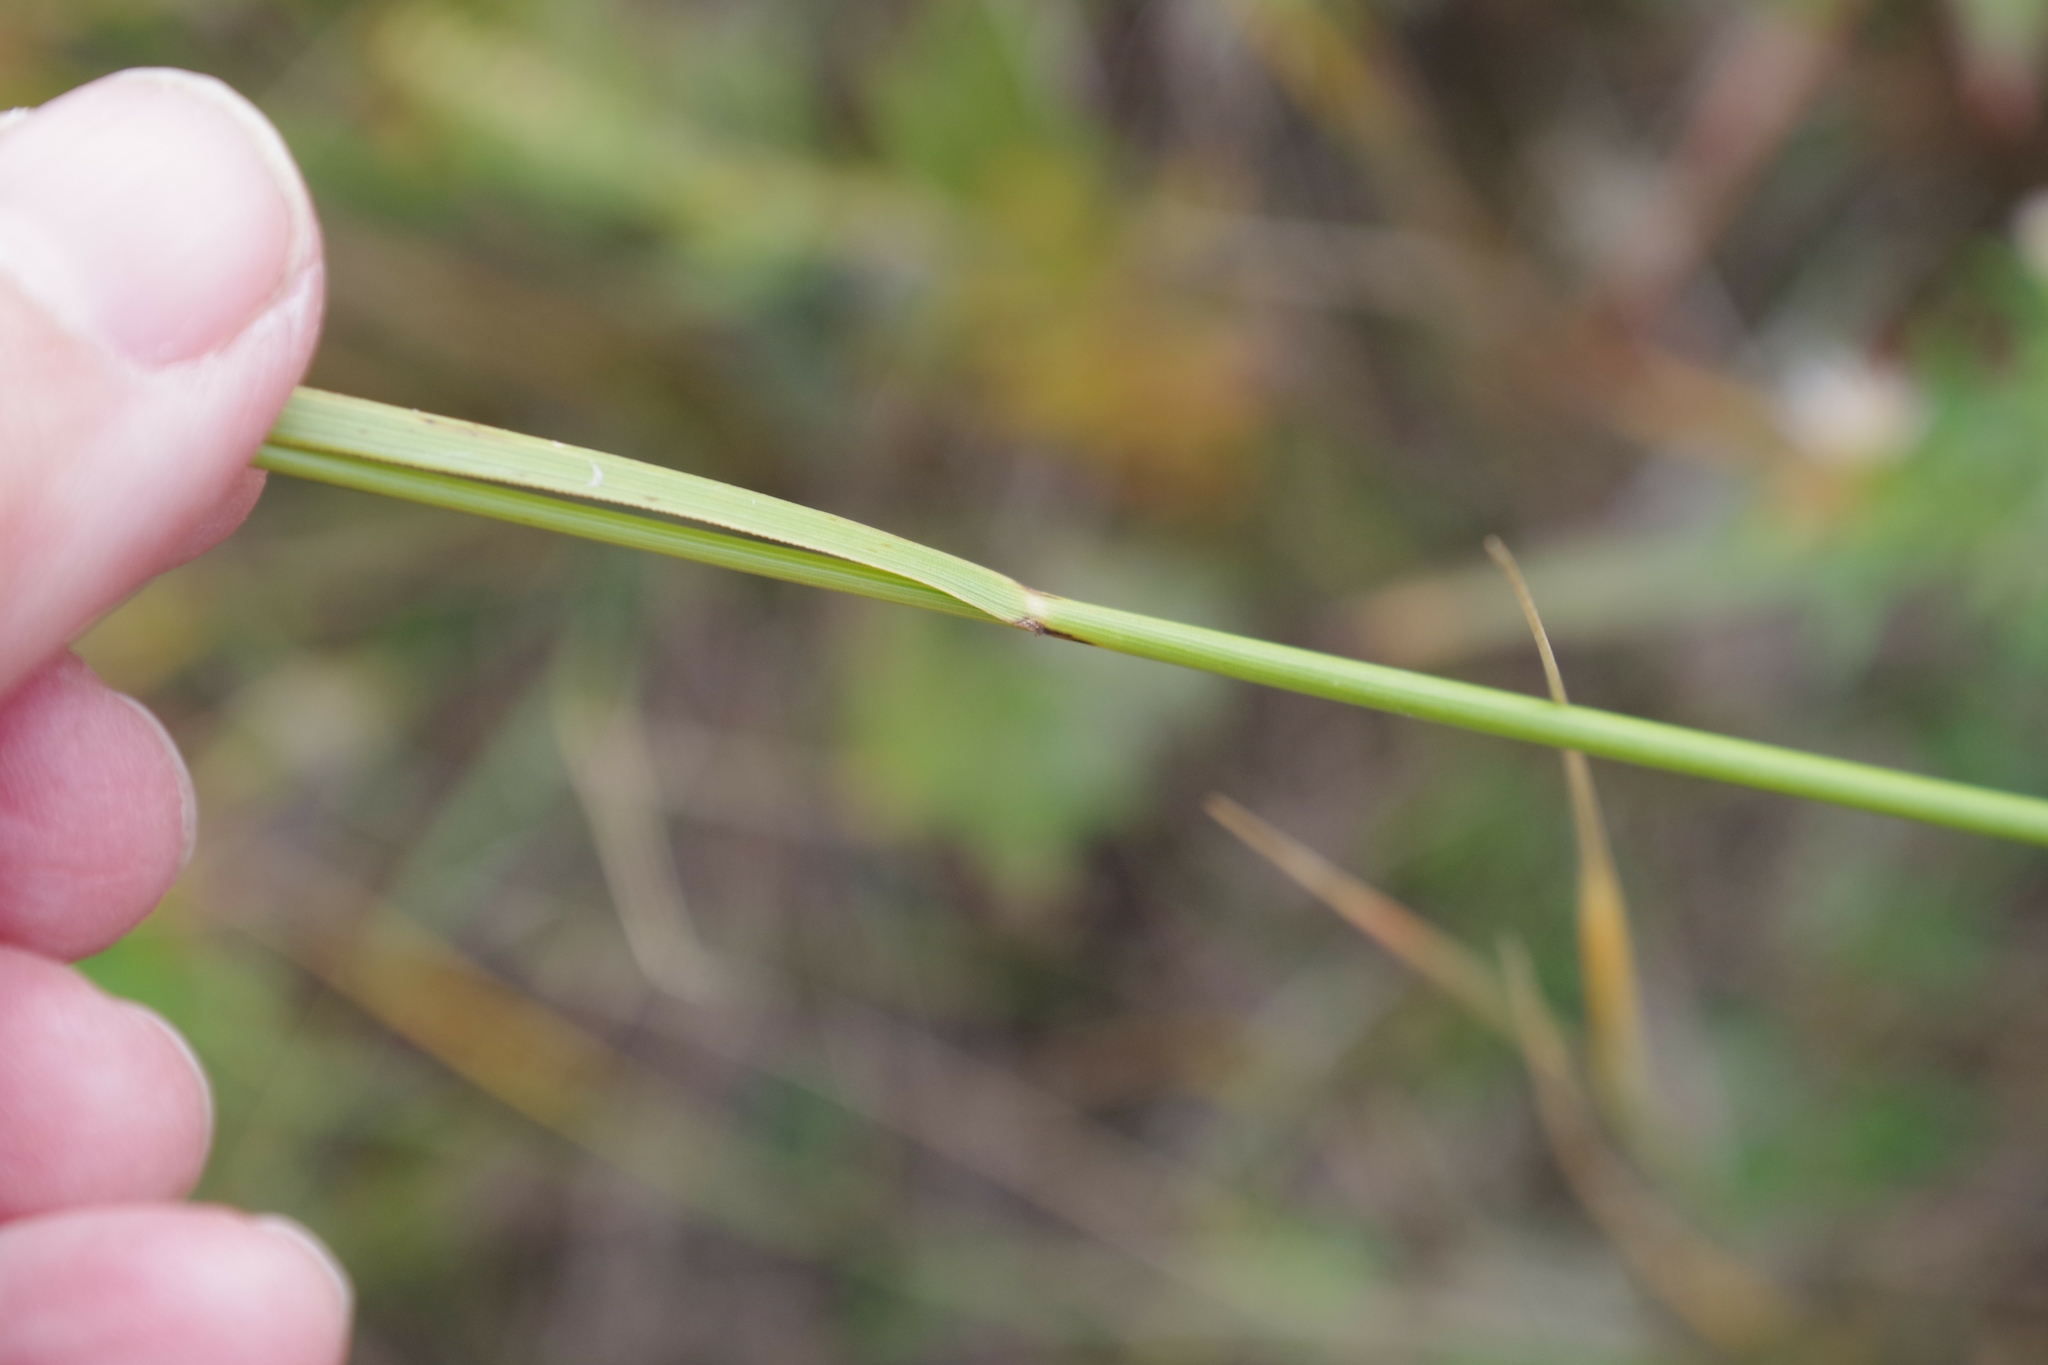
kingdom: Plantae
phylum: Tracheophyta
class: Liliopsida
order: Poales
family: Poaceae
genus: Elymus
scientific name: Elymus violaceus
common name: Arctic wheatgrass
